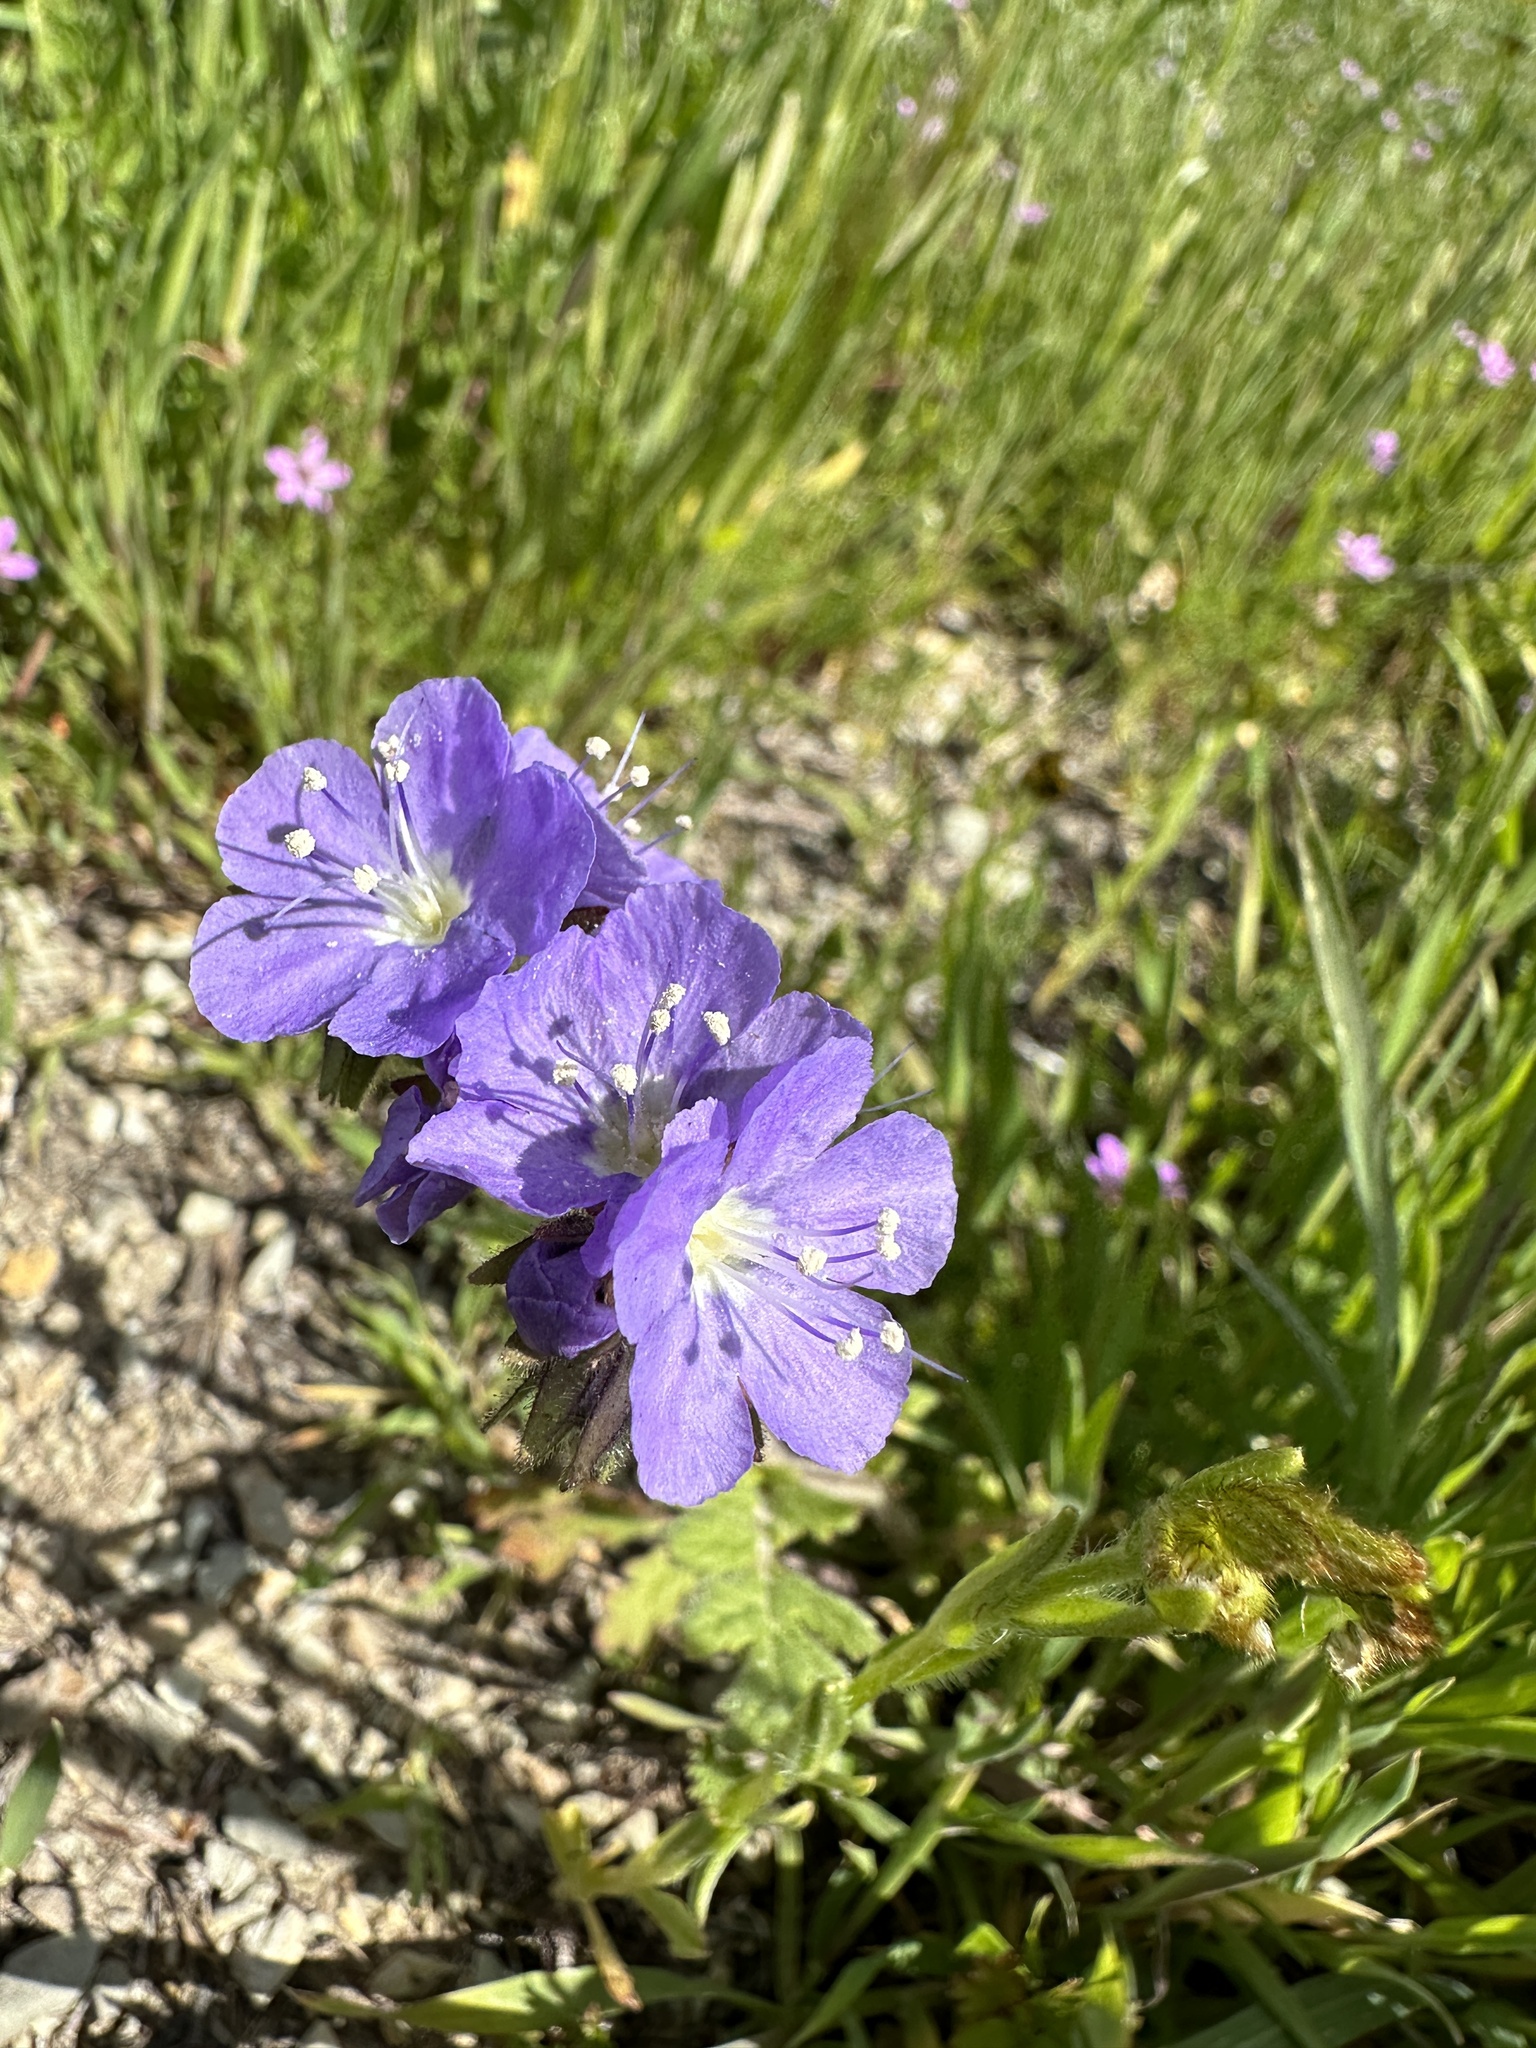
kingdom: Plantae
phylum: Tracheophyta
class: Magnoliopsida
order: Boraginales
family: Hydrophyllaceae
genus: Phacelia
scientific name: Phacelia ciliata
